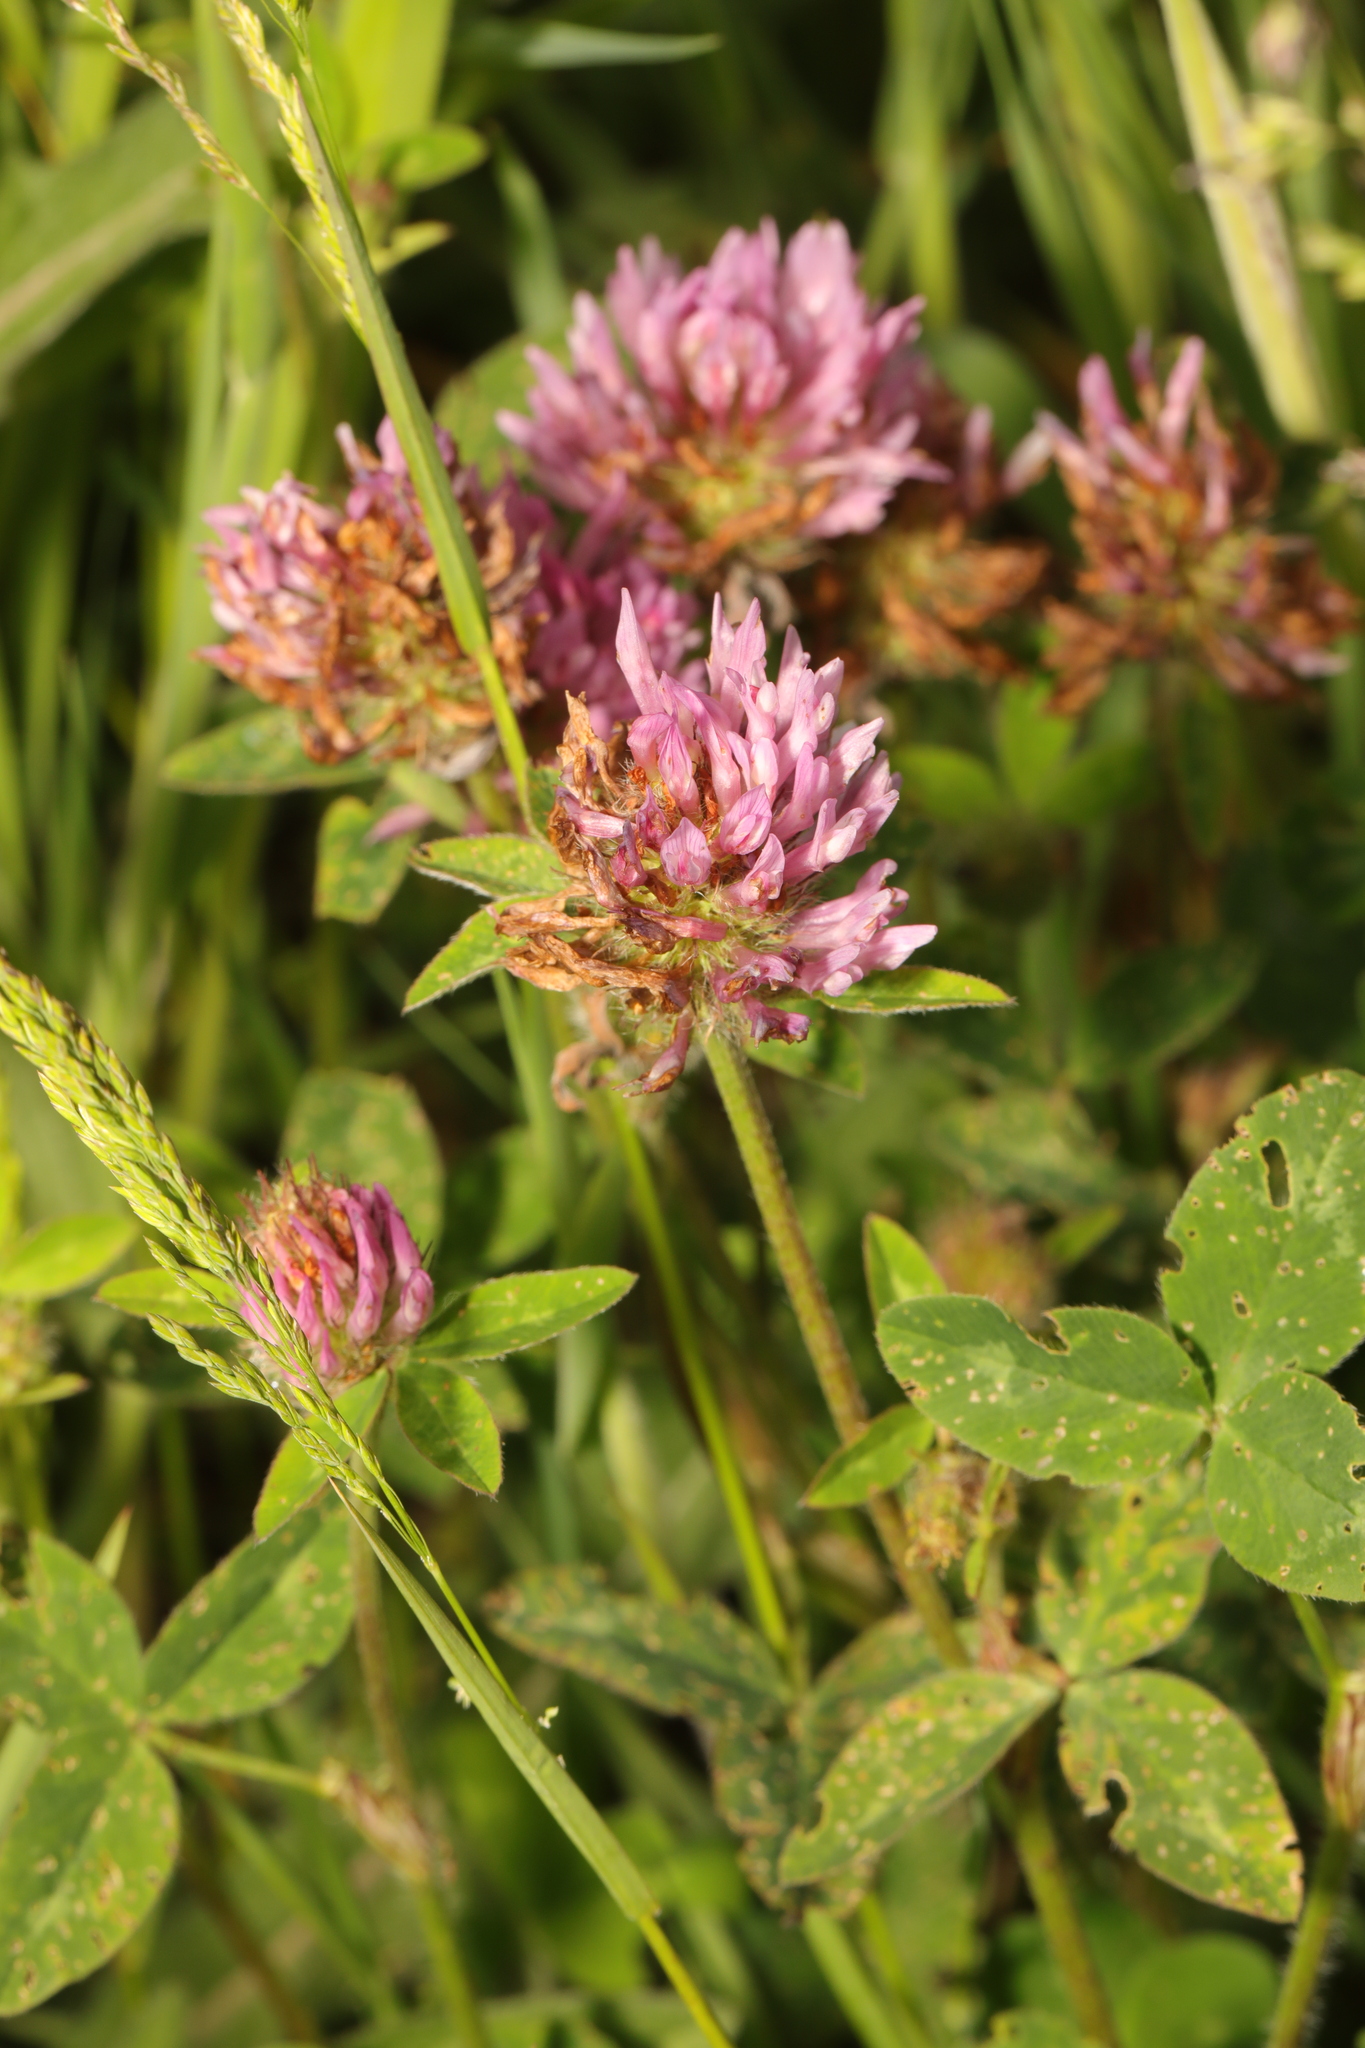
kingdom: Plantae
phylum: Tracheophyta
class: Magnoliopsida
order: Fabales
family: Fabaceae
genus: Trifolium
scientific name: Trifolium pratense
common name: Red clover
